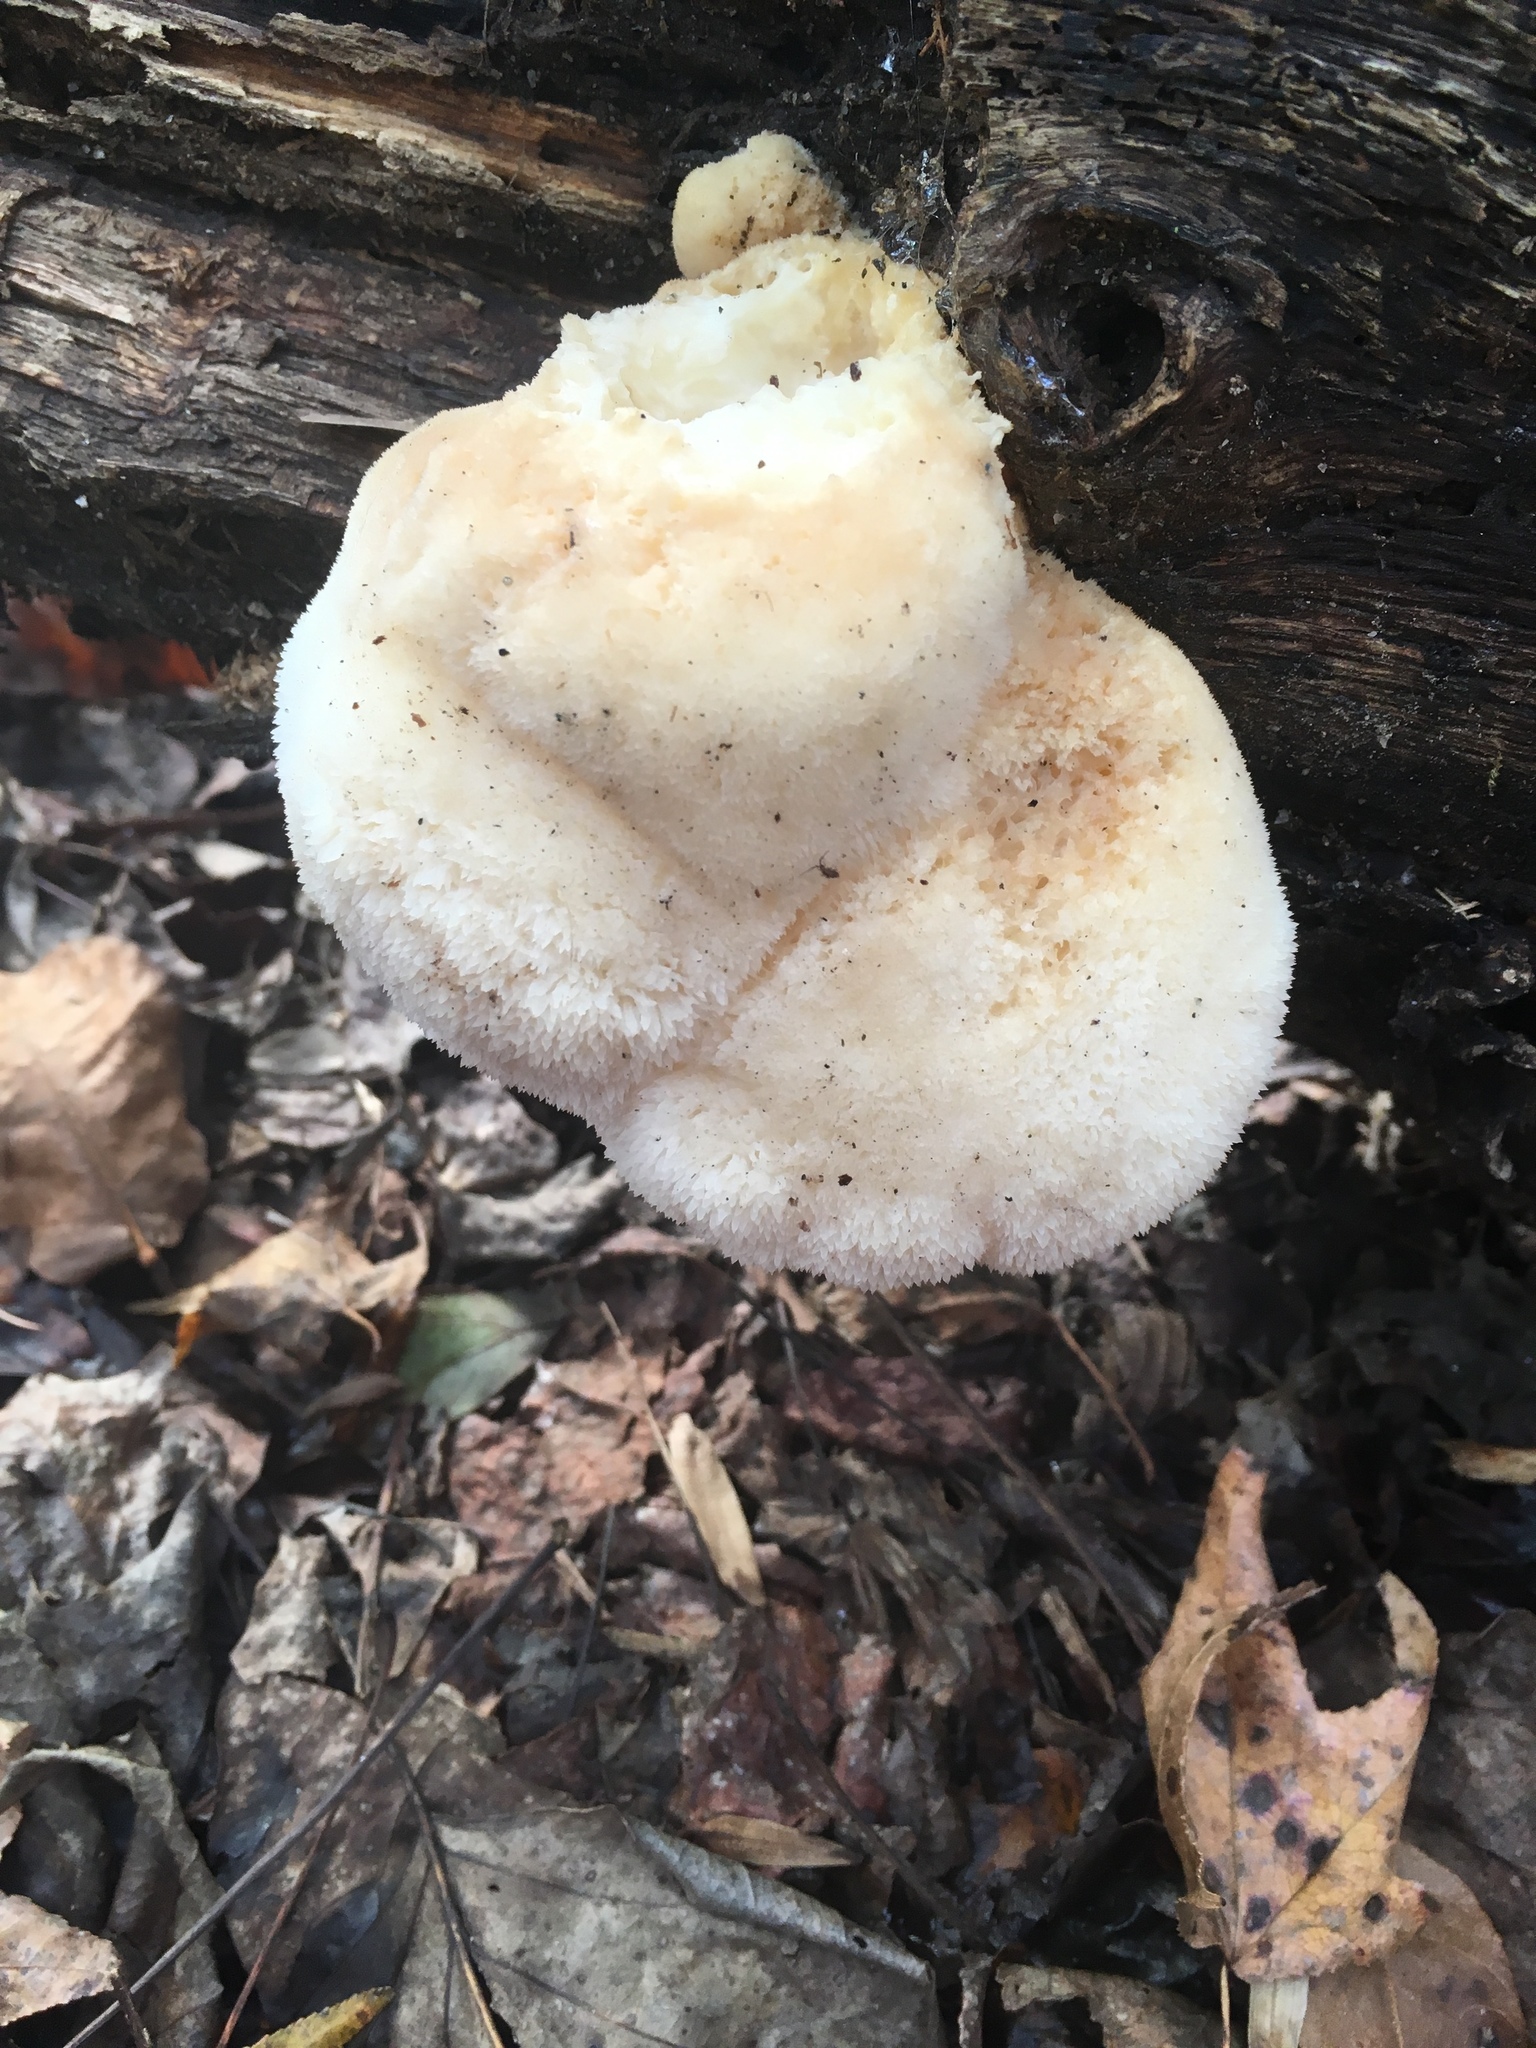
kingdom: Fungi
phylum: Basidiomycota
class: Agaricomycetes
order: Russulales
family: Hericiaceae
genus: Hericium
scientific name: Hericium erinaceus
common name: Bearded tooth
